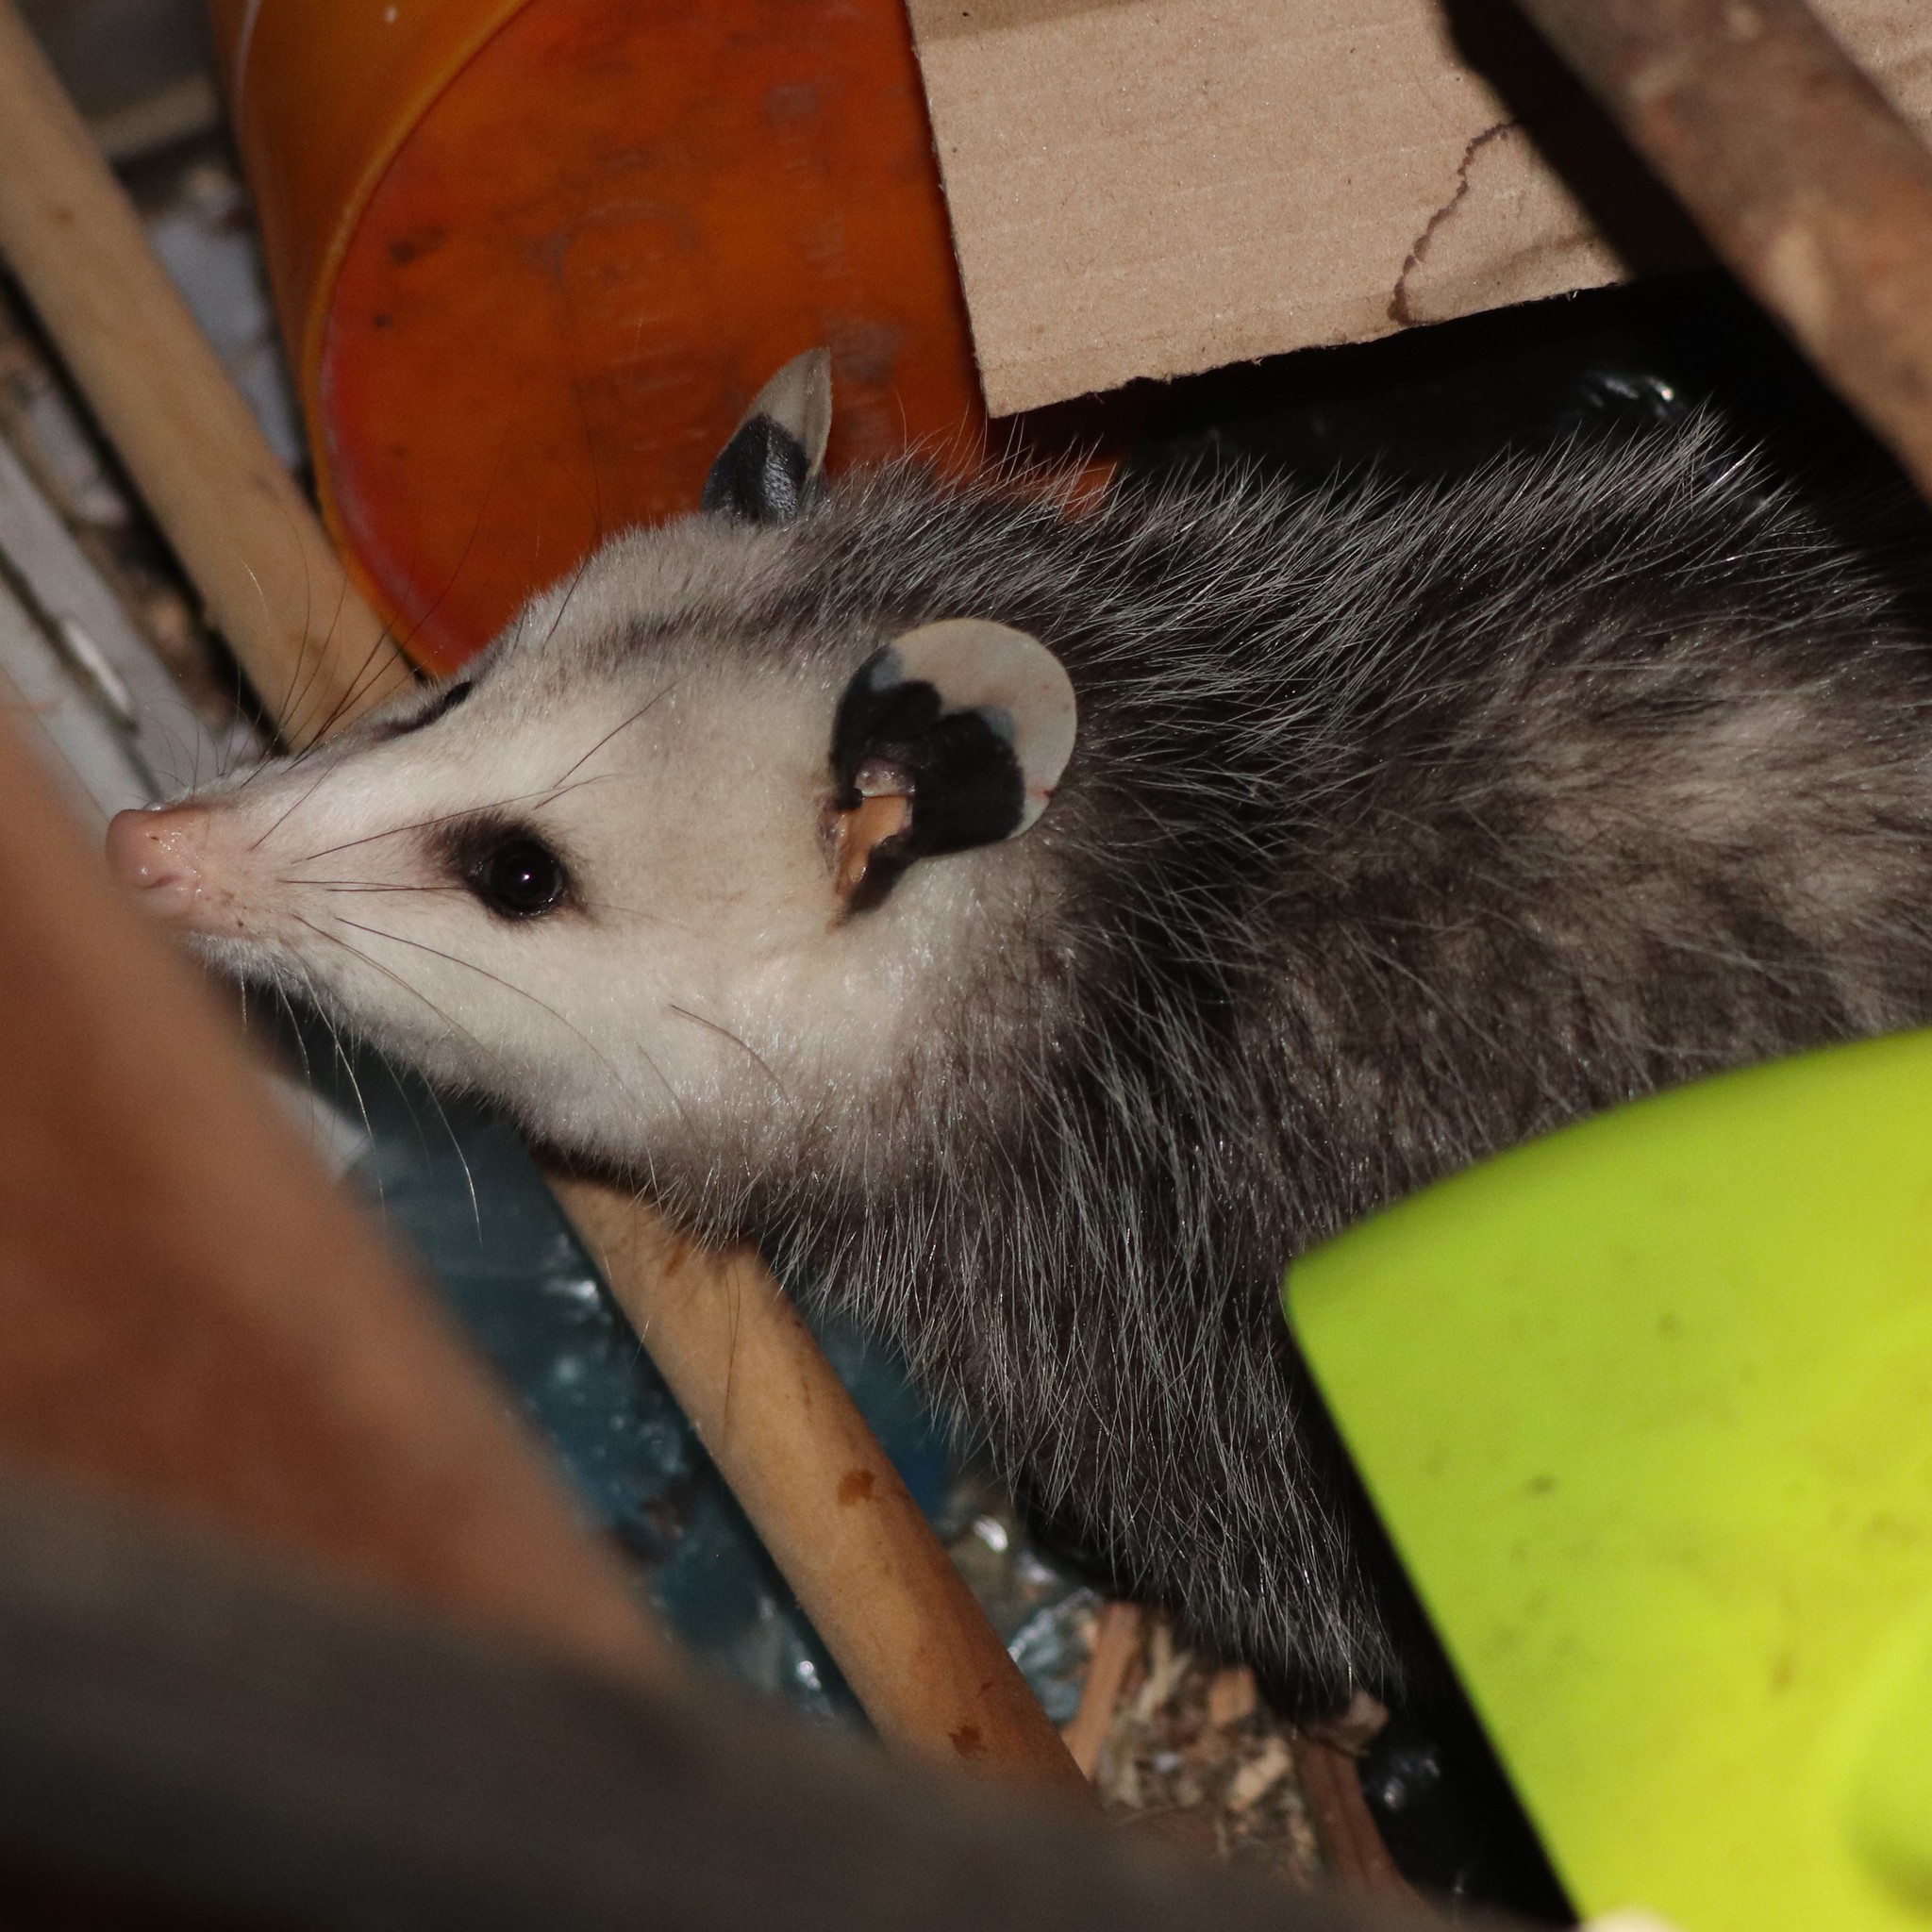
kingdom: Animalia
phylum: Chordata
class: Mammalia
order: Didelphimorphia
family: Didelphidae
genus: Didelphis
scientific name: Didelphis virginiana
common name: Virginia opossum
